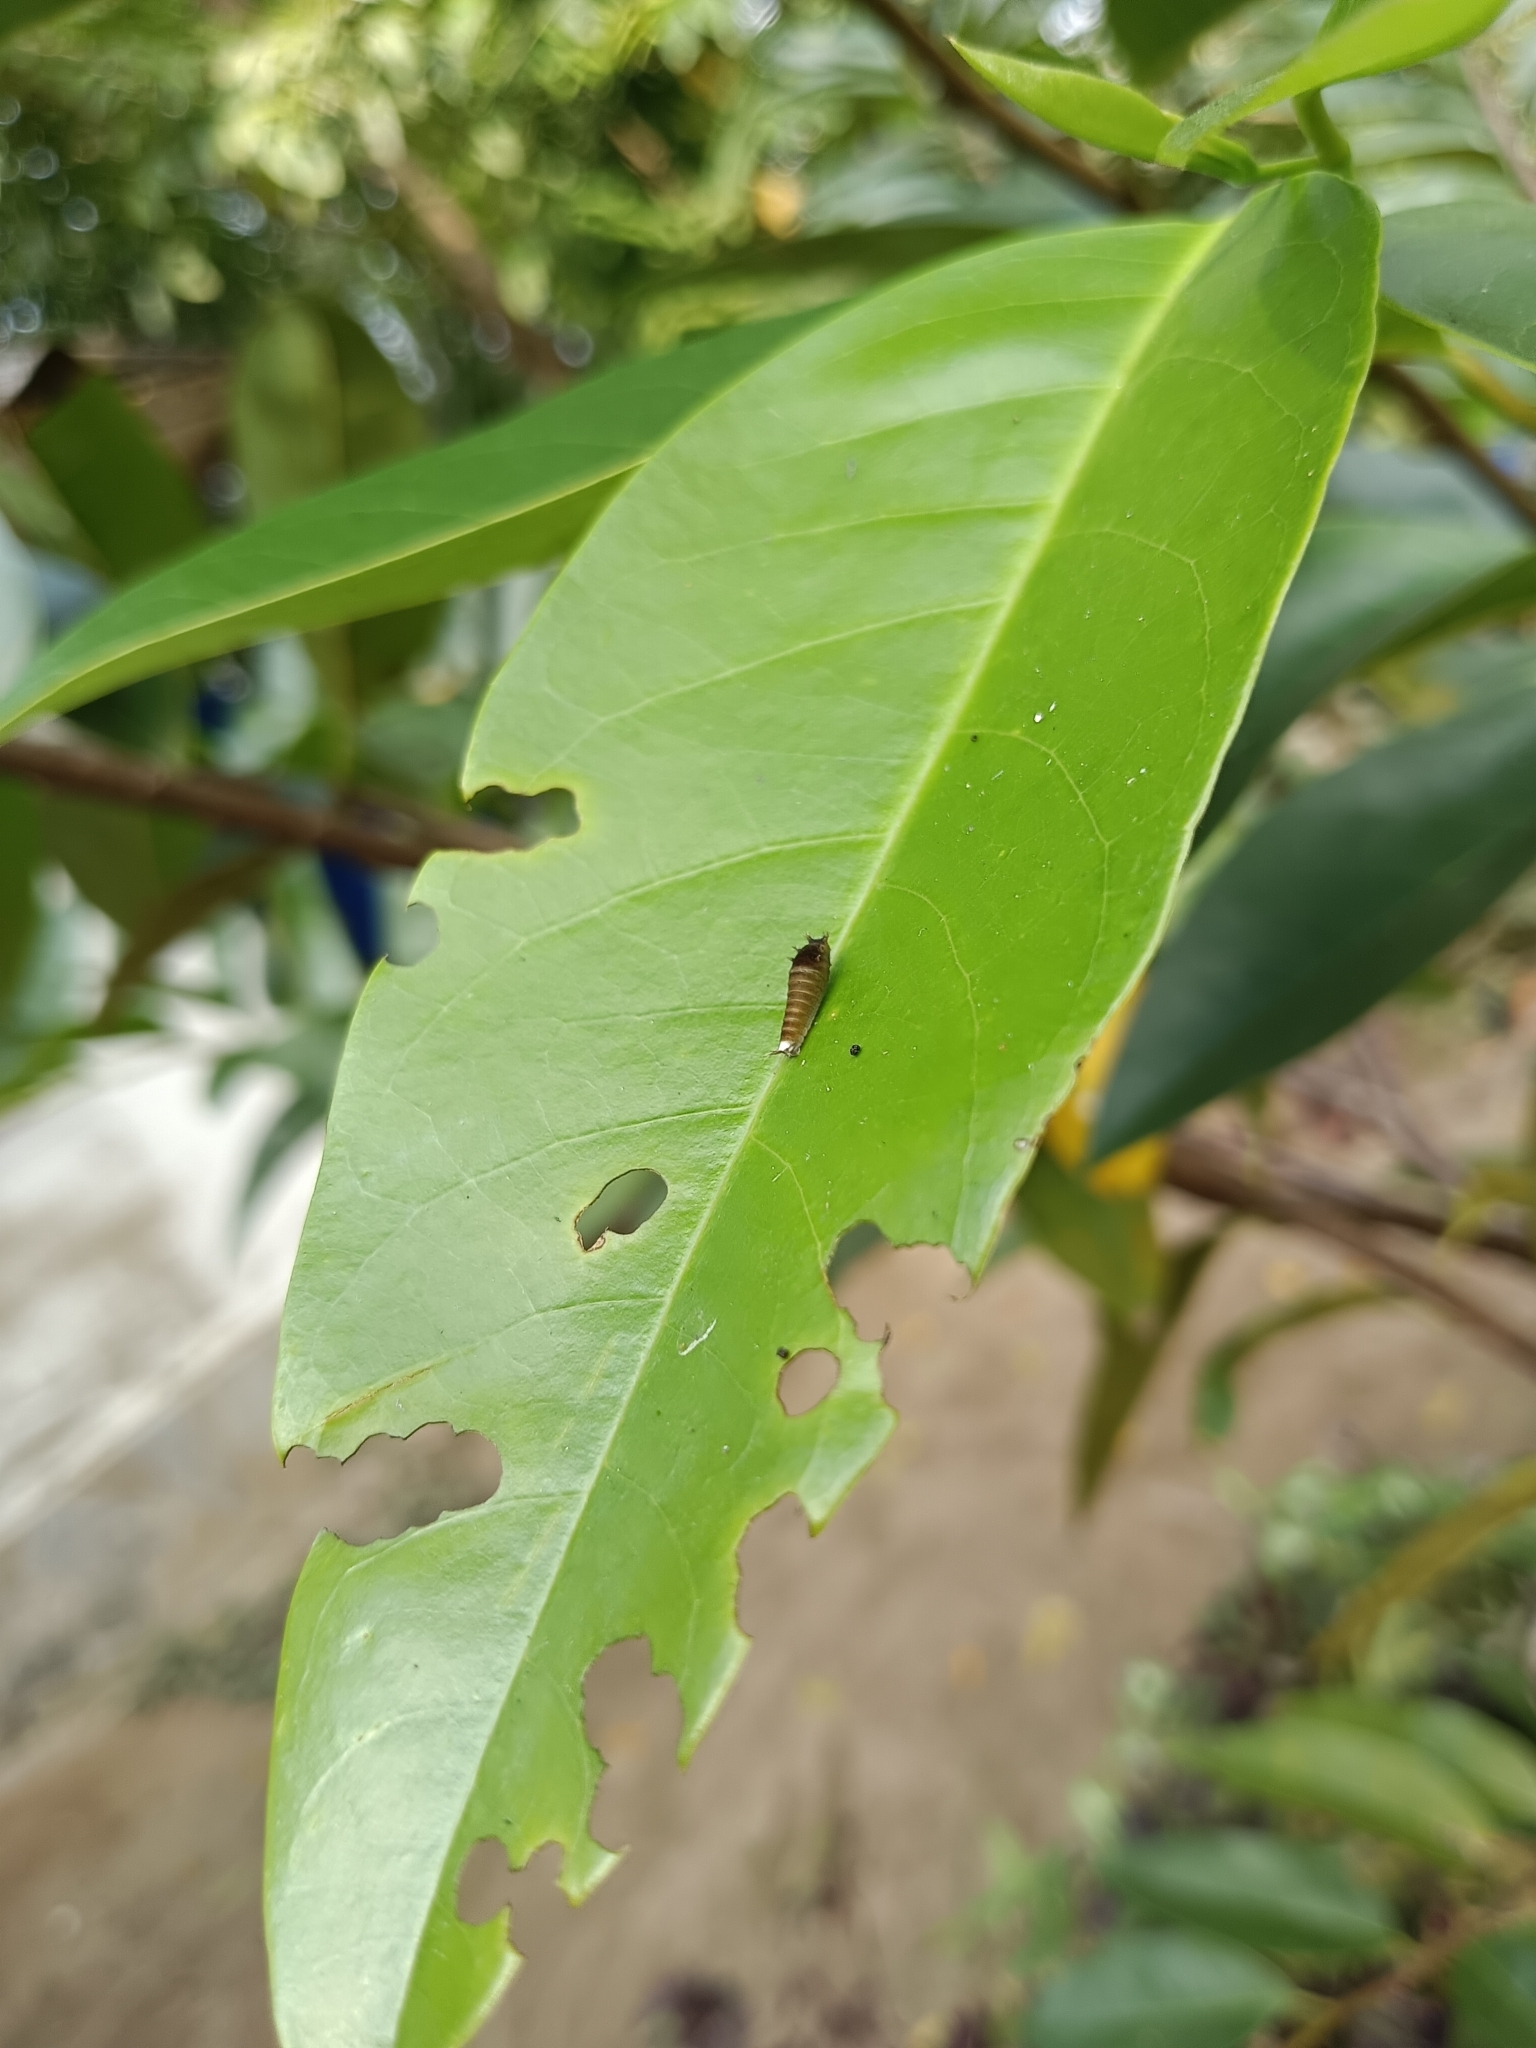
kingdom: Animalia
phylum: Arthropoda
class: Insecta
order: Lepidoptera
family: Papilionidae
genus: Graphium
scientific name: Graphium doson
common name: Common jay
